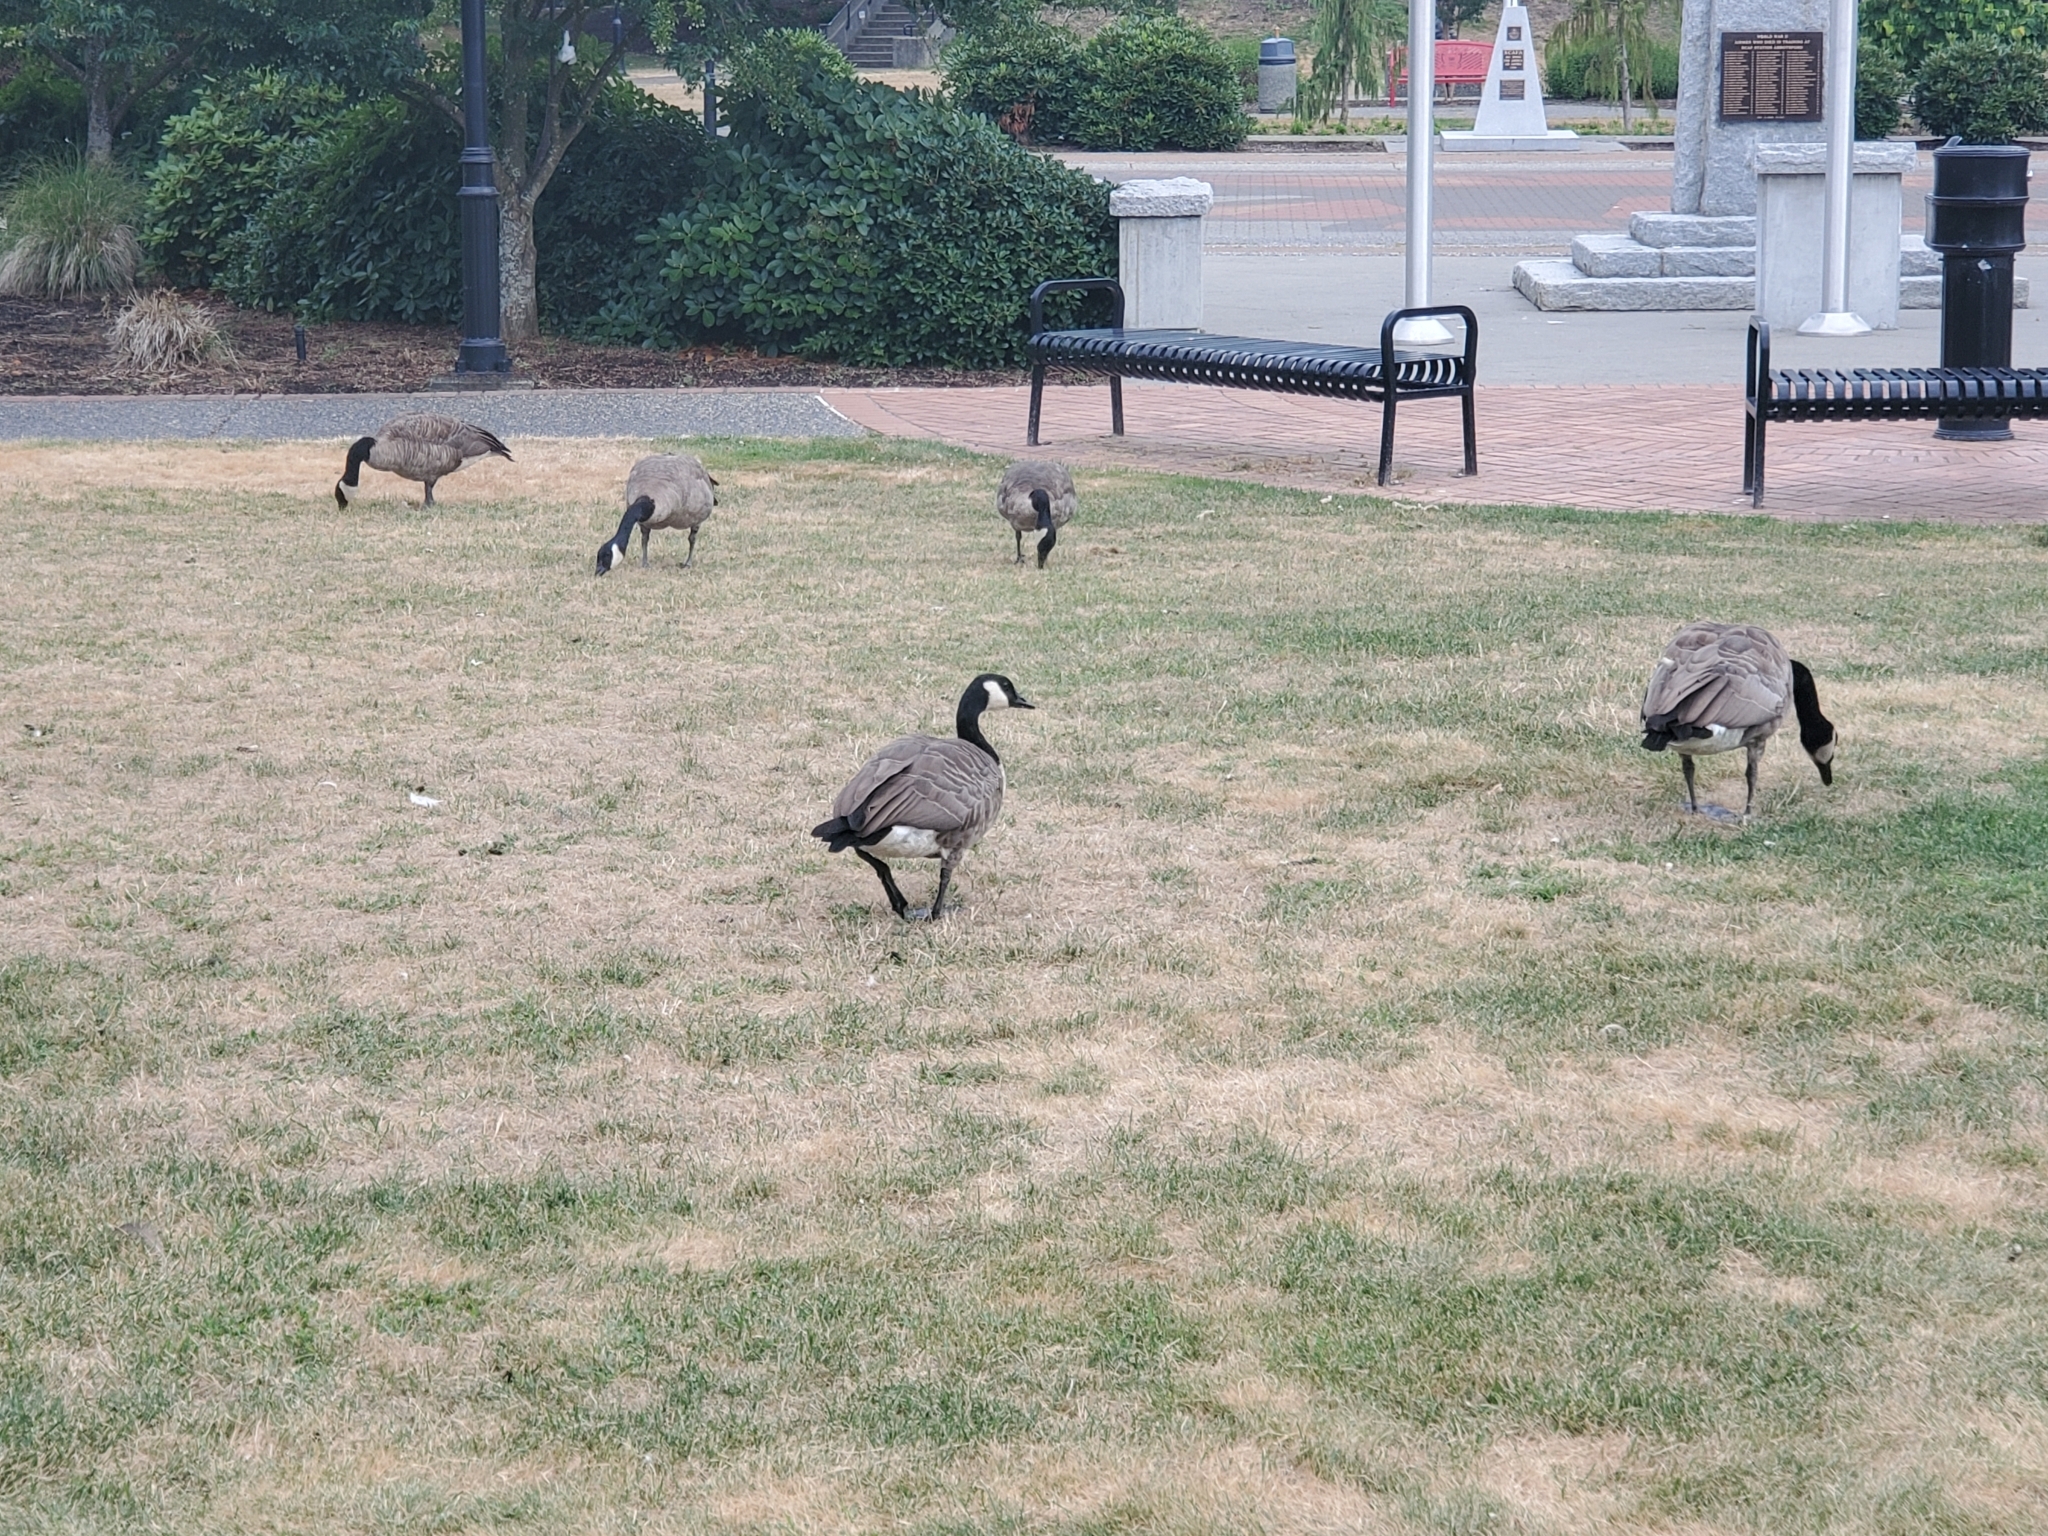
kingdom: Animalia
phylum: Chordata
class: Aves
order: Anseriformes
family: Anatidae
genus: Branta
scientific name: Branta canadensis
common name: Canada goose
